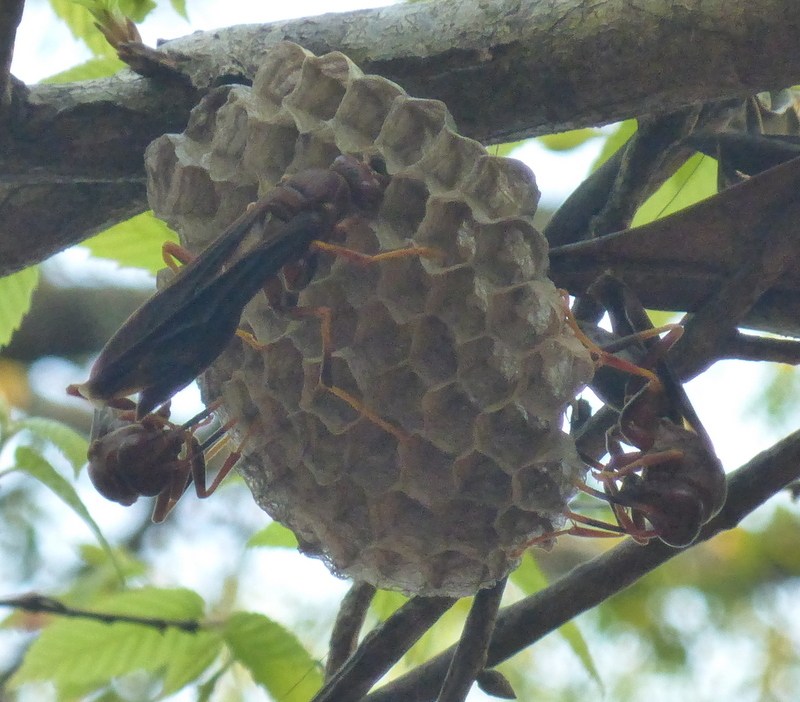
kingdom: Animalia
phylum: Arthropoda
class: Insecta
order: Hymenoptera
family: Eumenidae
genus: Polistes
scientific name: Polistes annularis
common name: Ringed paper wasp
